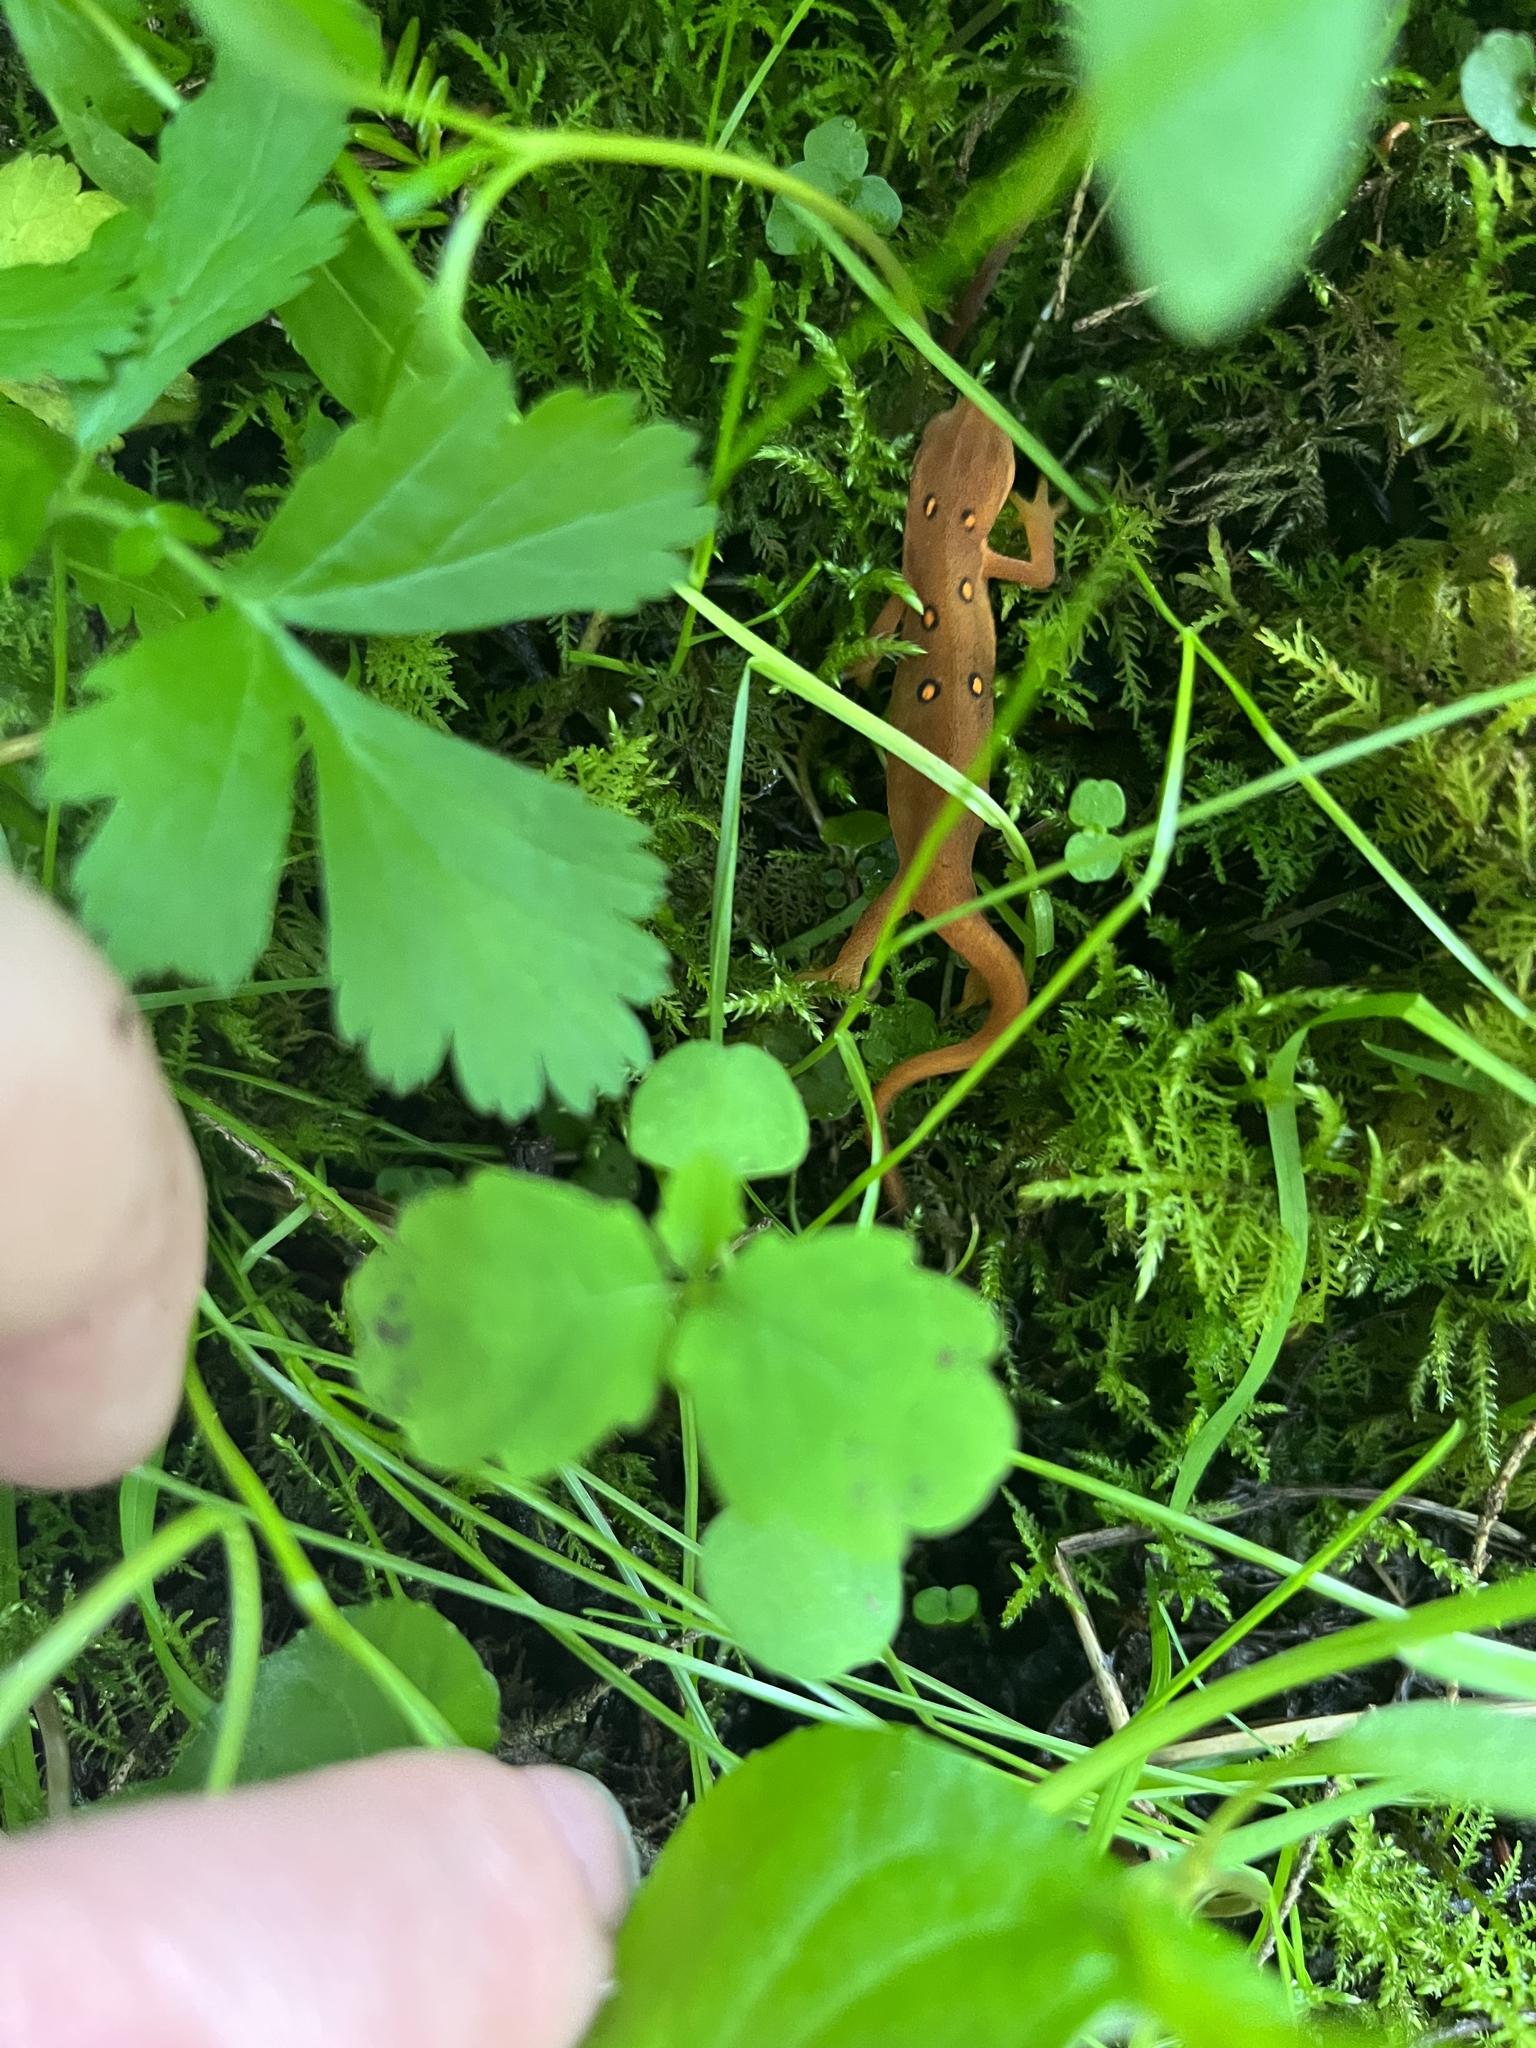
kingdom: Animalia
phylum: Chordata
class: Amphibia
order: Caudata
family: Salamandridae
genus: Notophthalmus
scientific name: Notophthalmus viridescens
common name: Eastern newt
